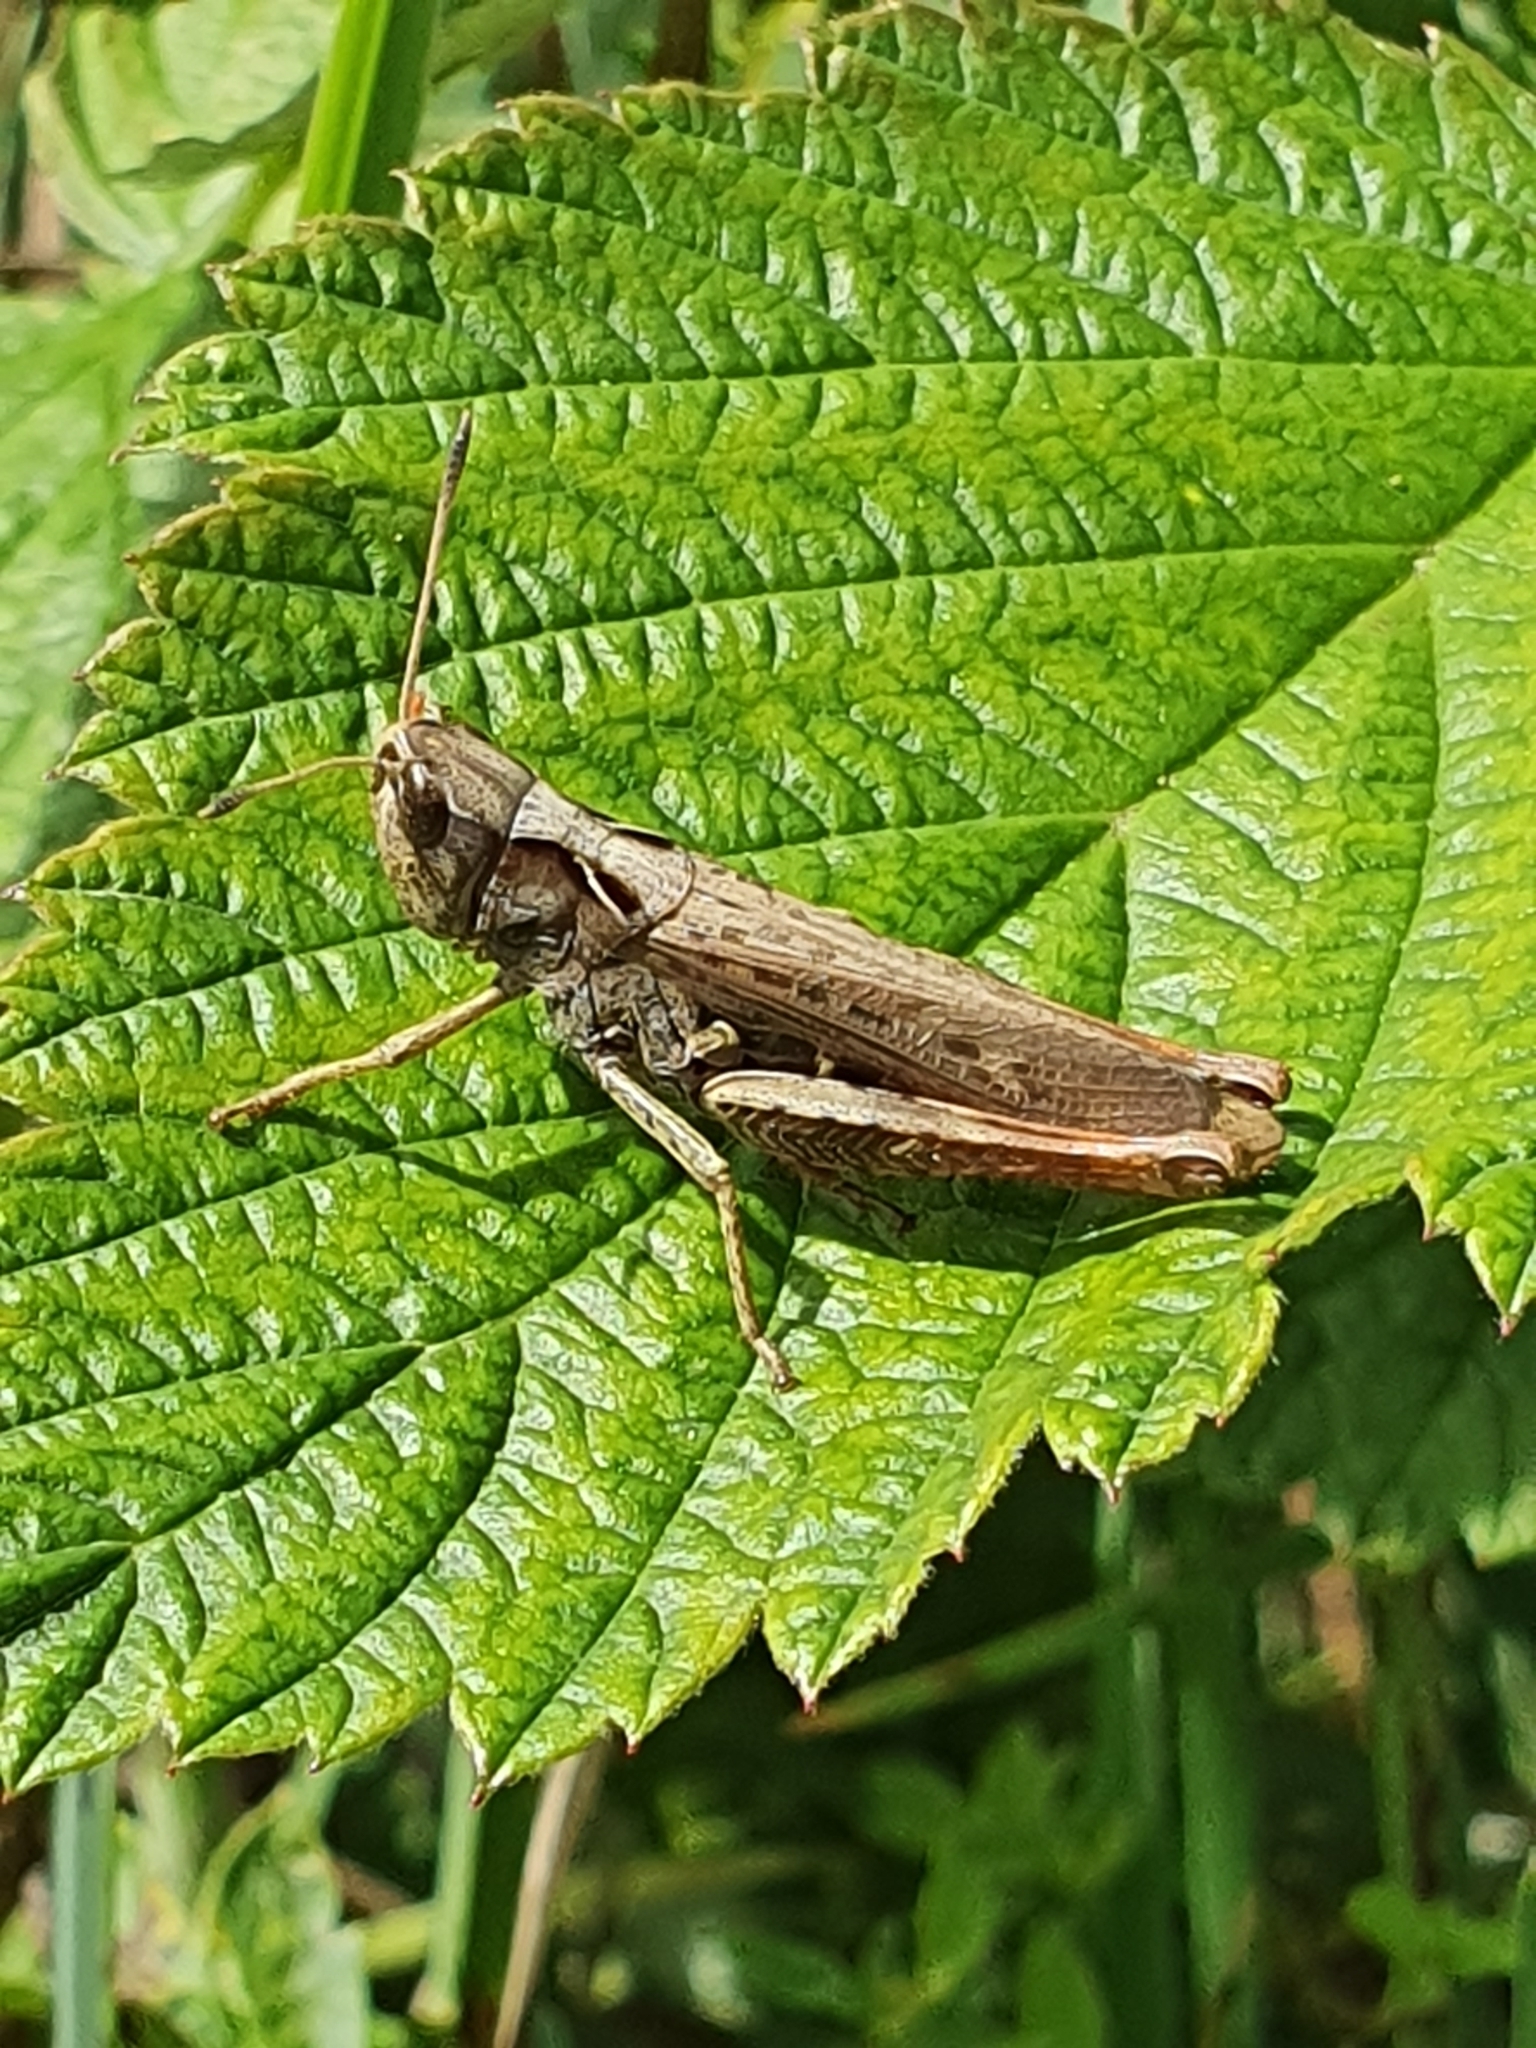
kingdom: Animalia
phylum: Arthropoda
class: Insecta
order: Orthoptera
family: Acrididae
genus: Gomphocerippus
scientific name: Gomphocerippus rufus
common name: Rufous grasshopper
